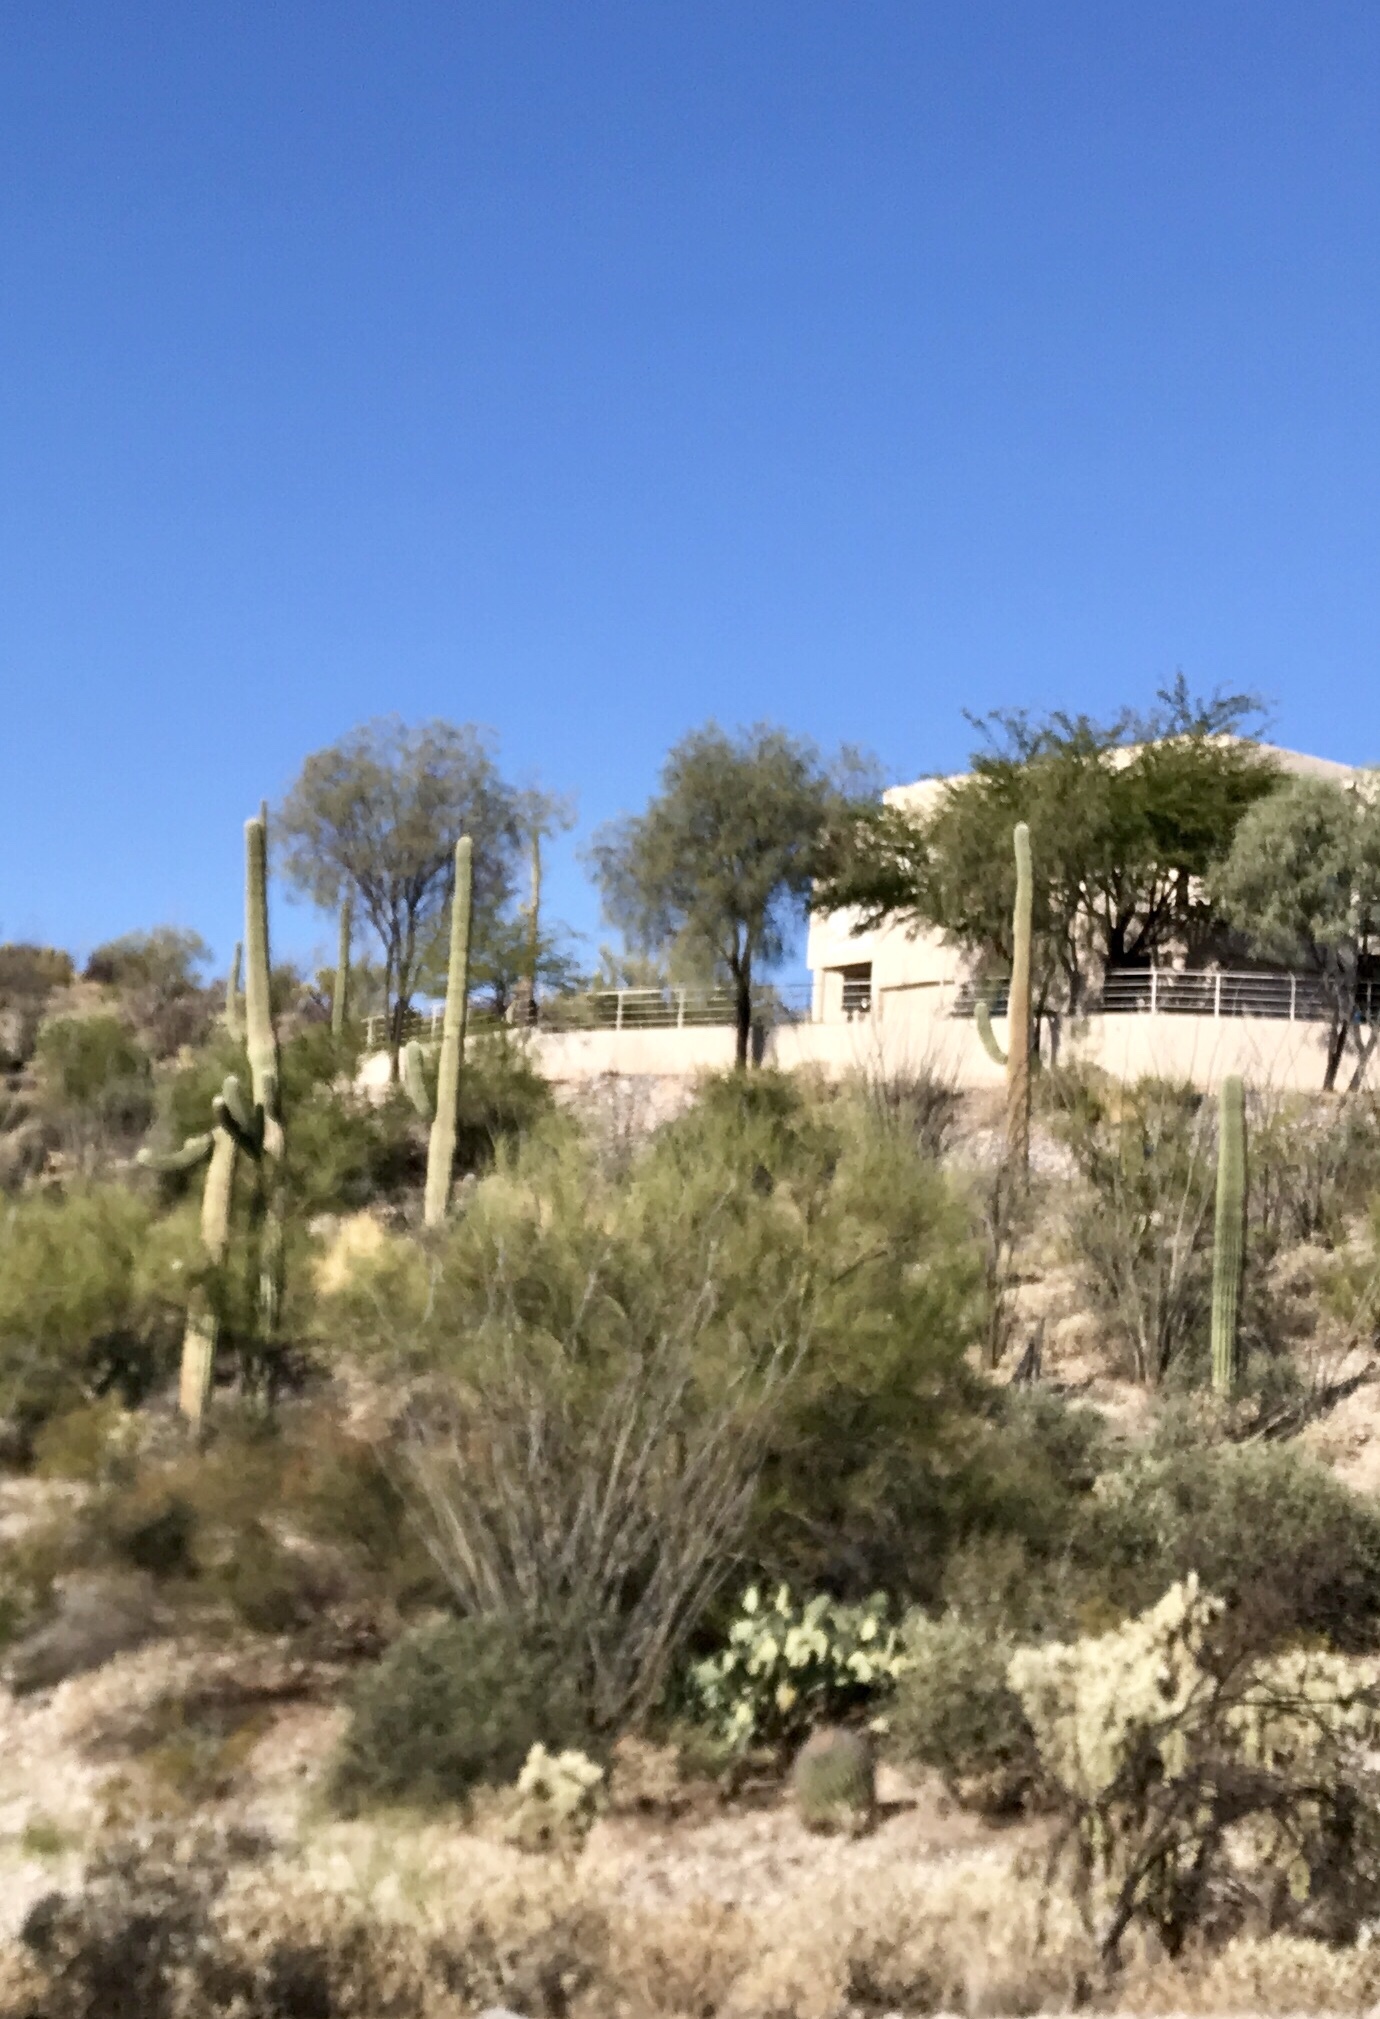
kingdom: Plantae
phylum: Tracheophyta
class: Magnoliopsida
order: Caryophyllales
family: Cactaceae
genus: Carnegiea
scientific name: Carnegiea gigantea
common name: Saguaro
